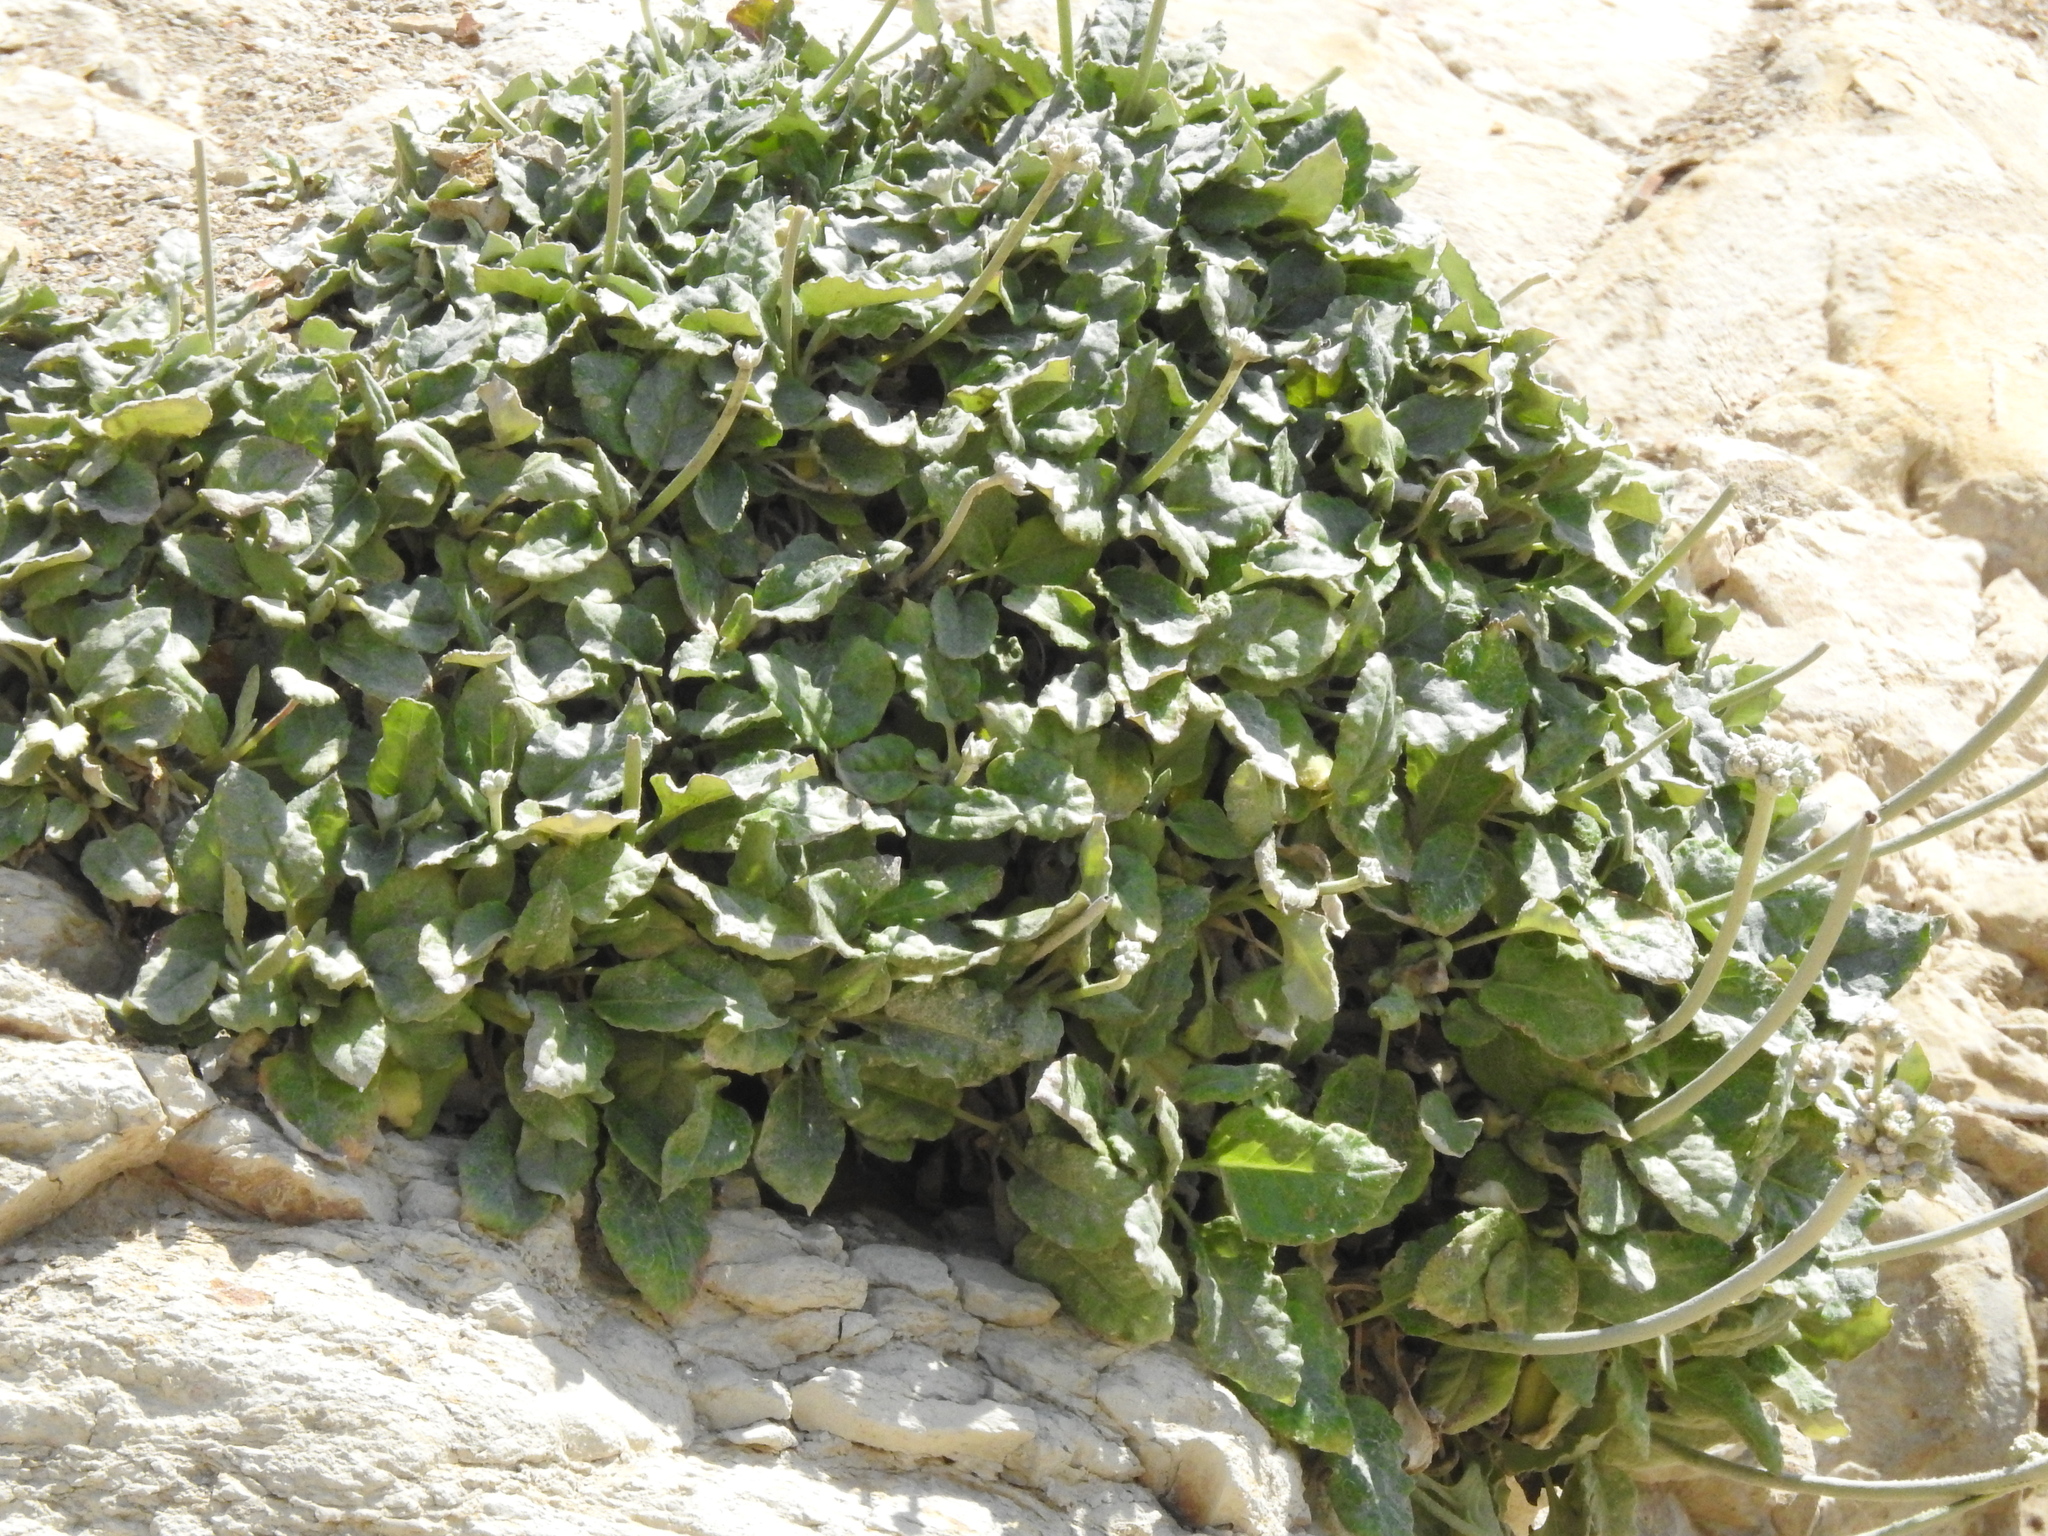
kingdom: Plantae
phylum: Tracheophyta
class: Magnoliopsida
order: Caryophyllales
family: Polygonaceae
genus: Eriogonum
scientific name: Eriogonum latifolium
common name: Seaside wild buckwheat
